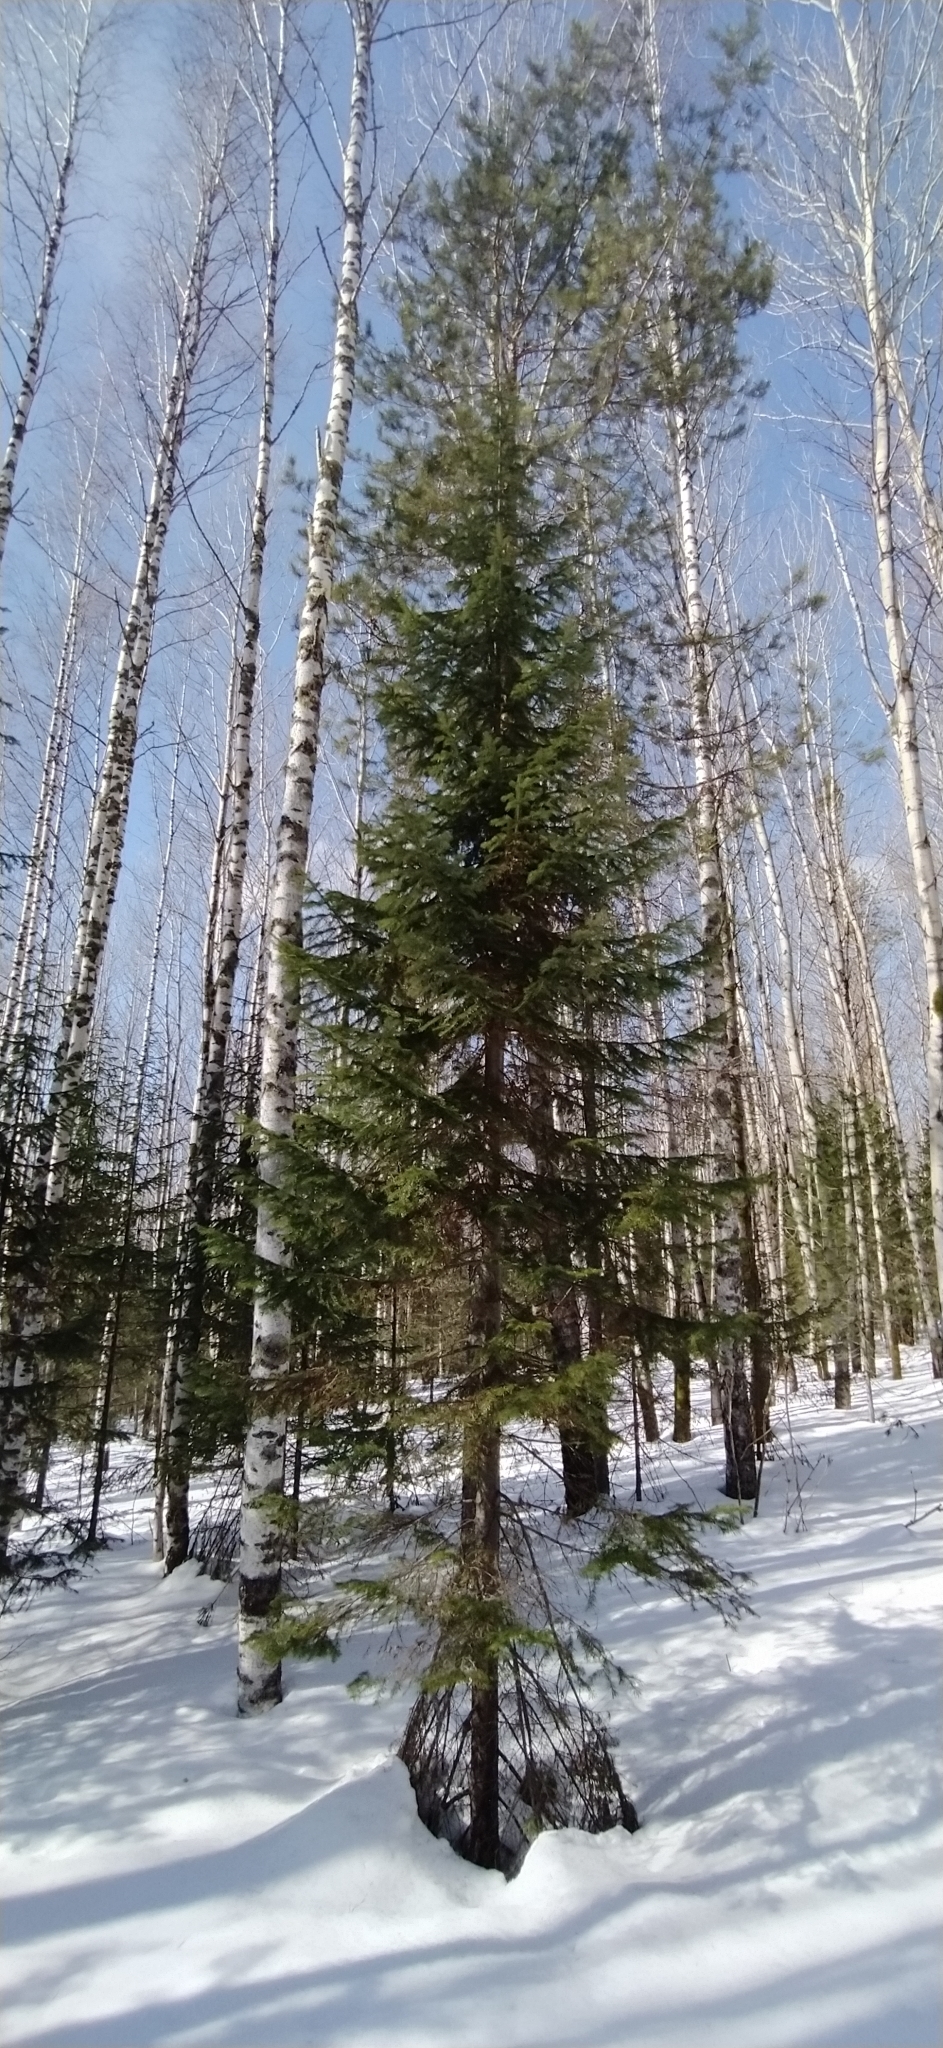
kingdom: Plantae
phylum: Tracheophyta
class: Pinopsida
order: Pinales
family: Pinaceae
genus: Abies
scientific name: Abies sibirica
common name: Siberian fir
